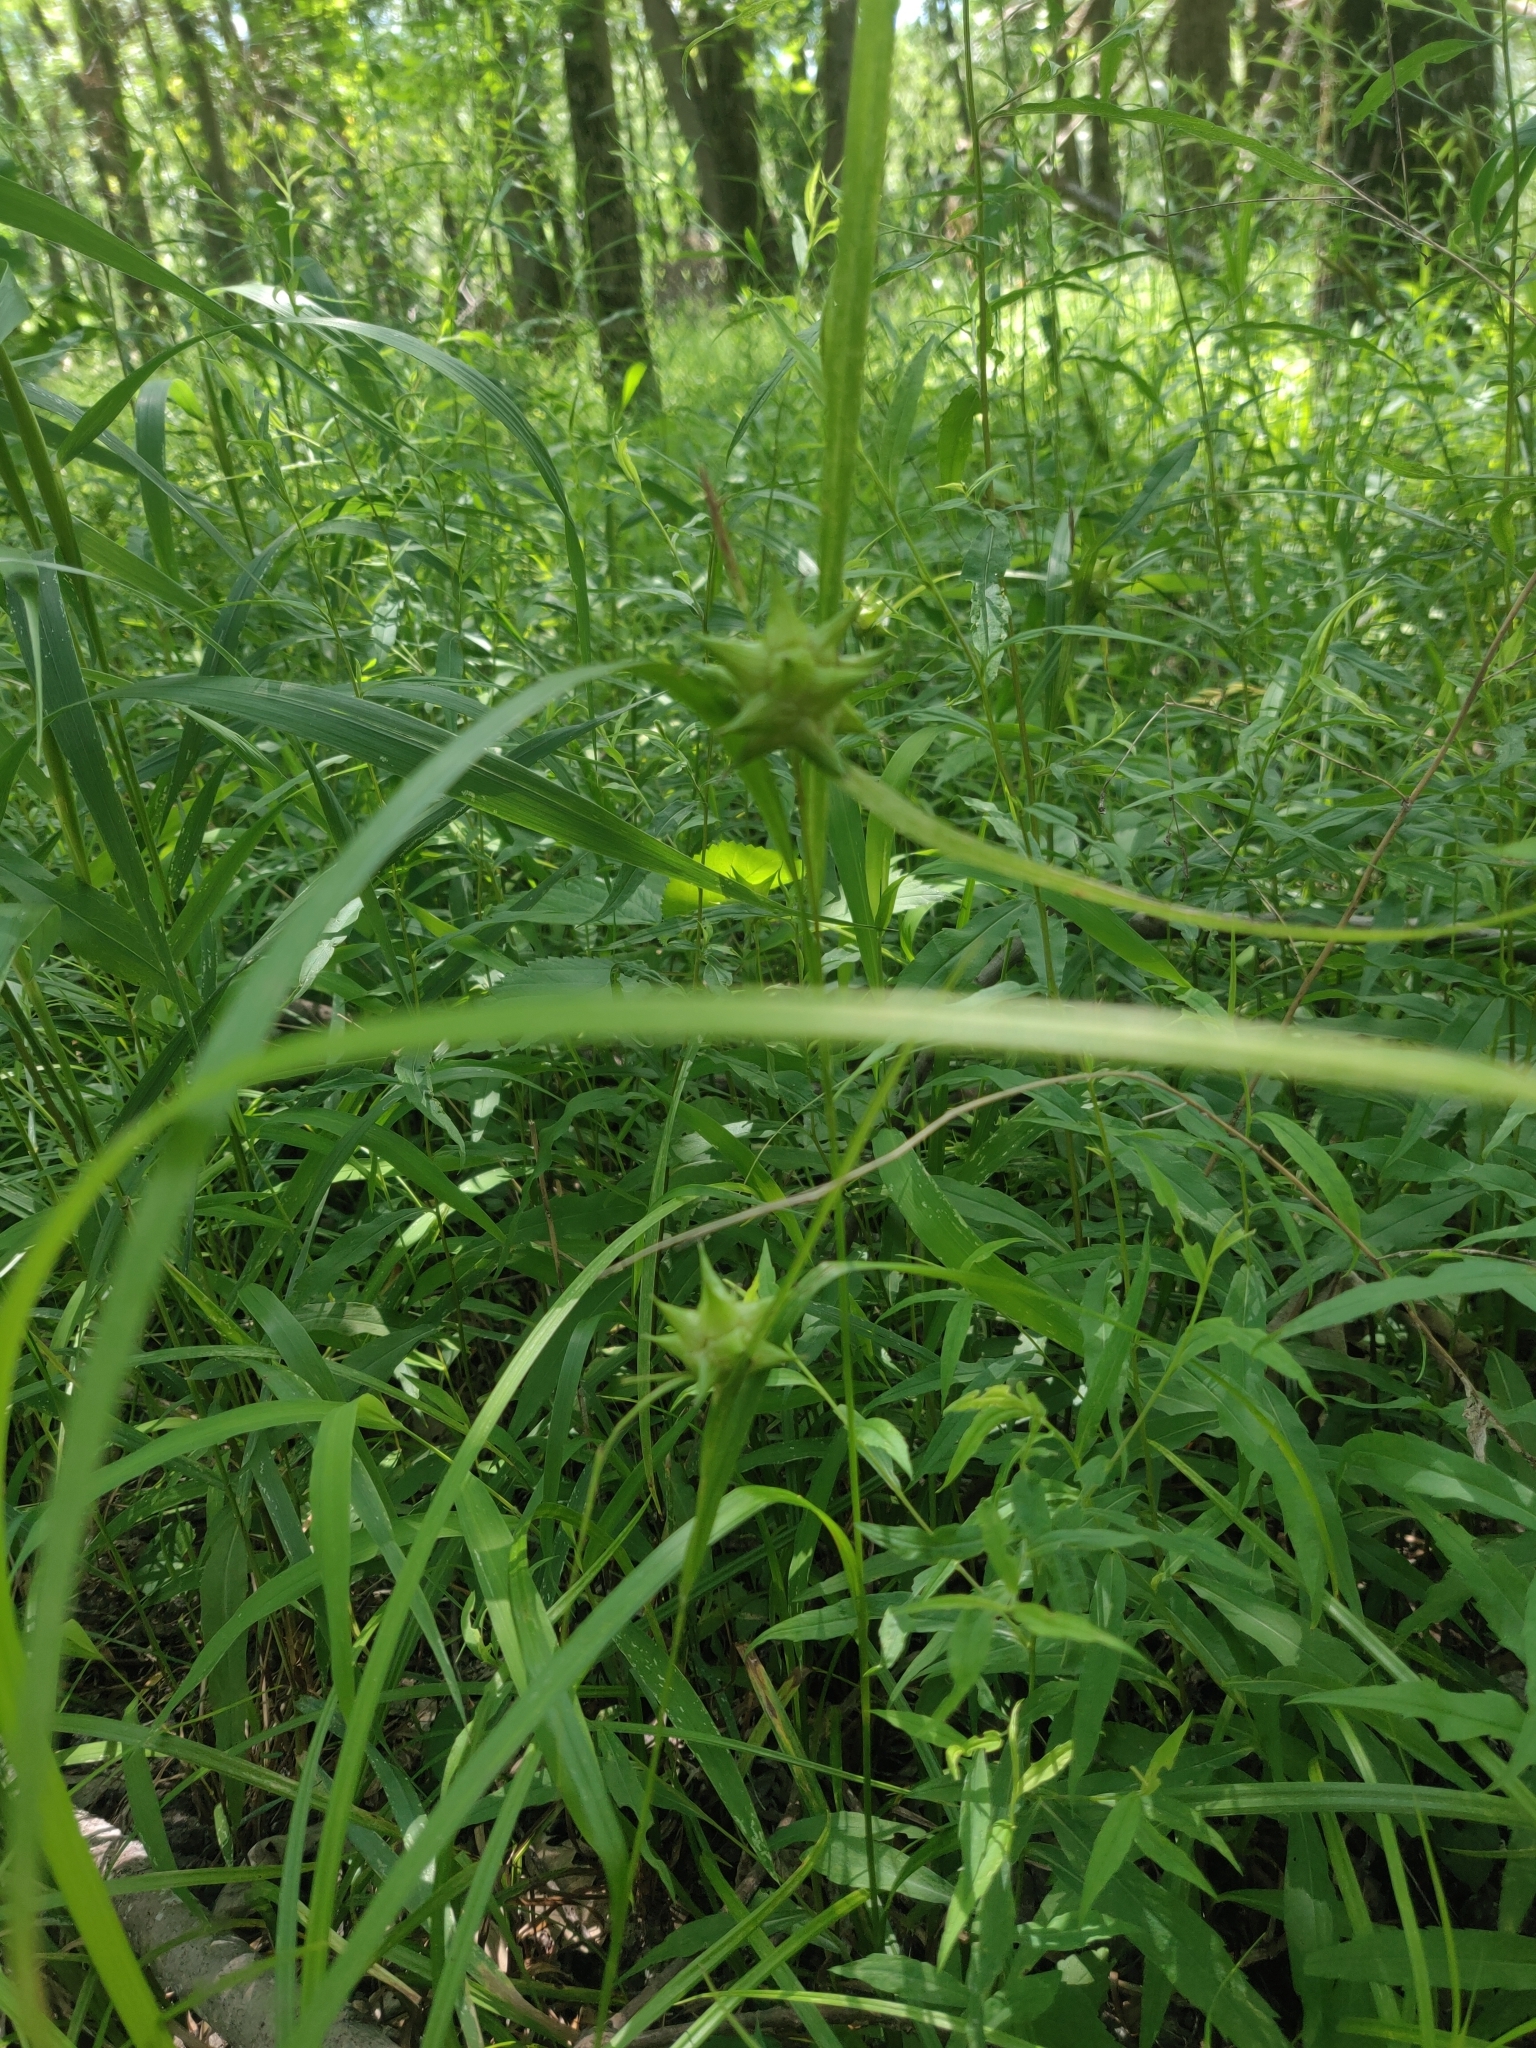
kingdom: Plantae
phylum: Tracheophyta
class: Liliopsida
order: Poales
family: Cyperaceae
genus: Carex
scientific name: Carex grayi
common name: Asa gray's sedge
